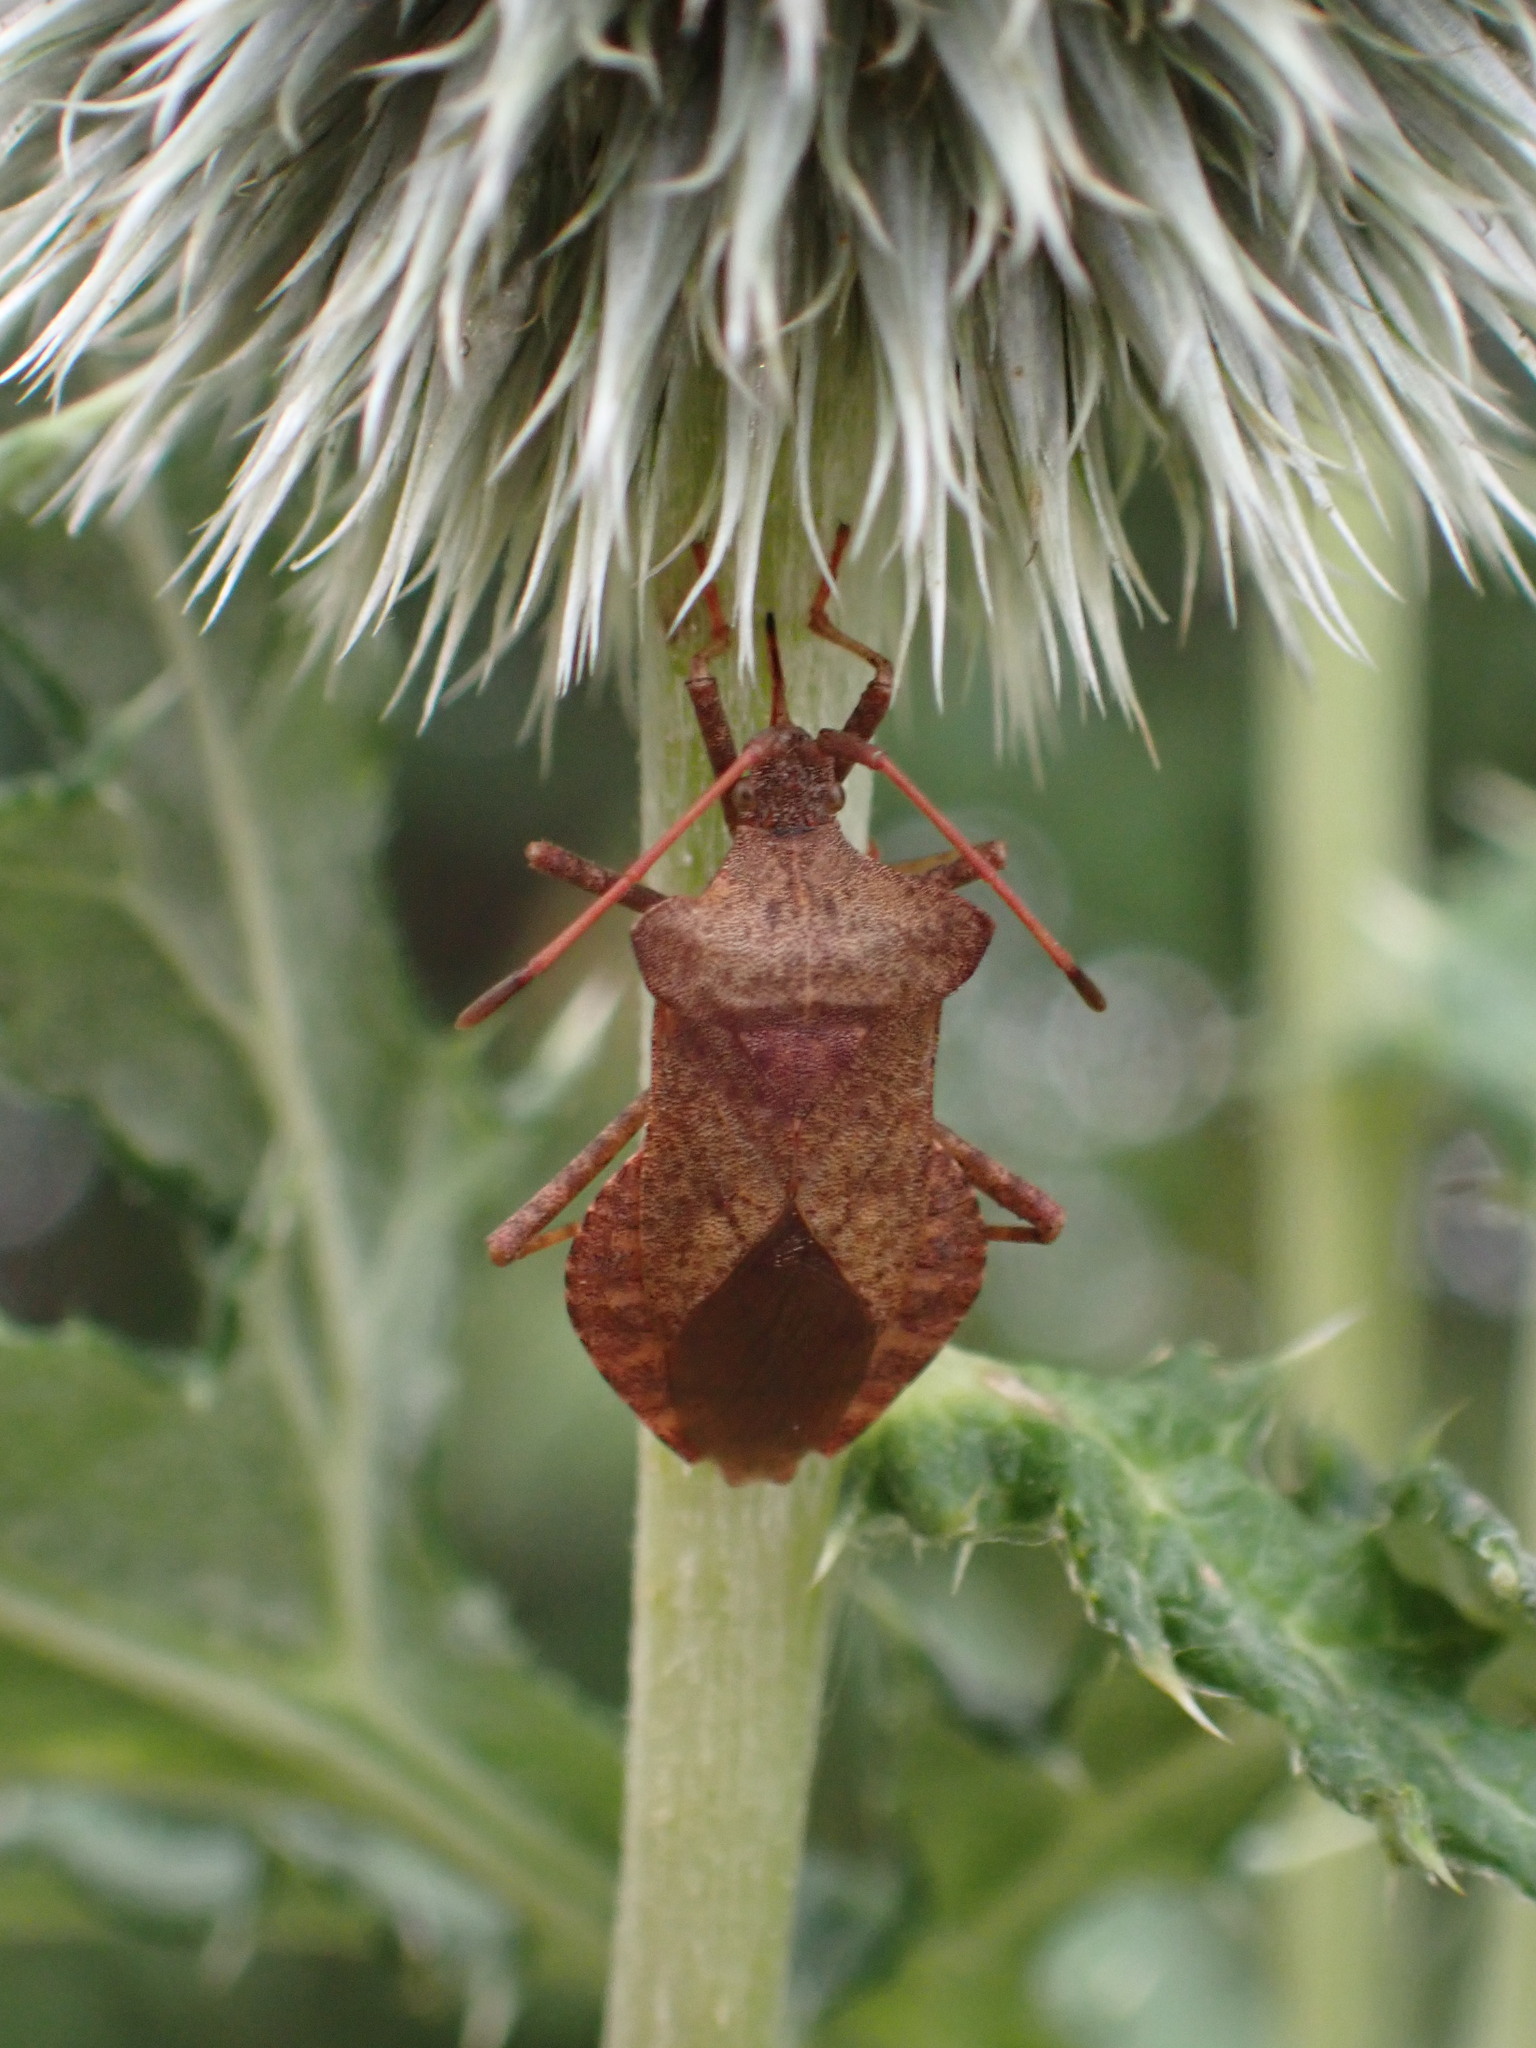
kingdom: Animalia
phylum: Arthropoda
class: Insecta
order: Hemiptera
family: Coreidae
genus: Coreus
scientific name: Coreus marginatus
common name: Dock bug
